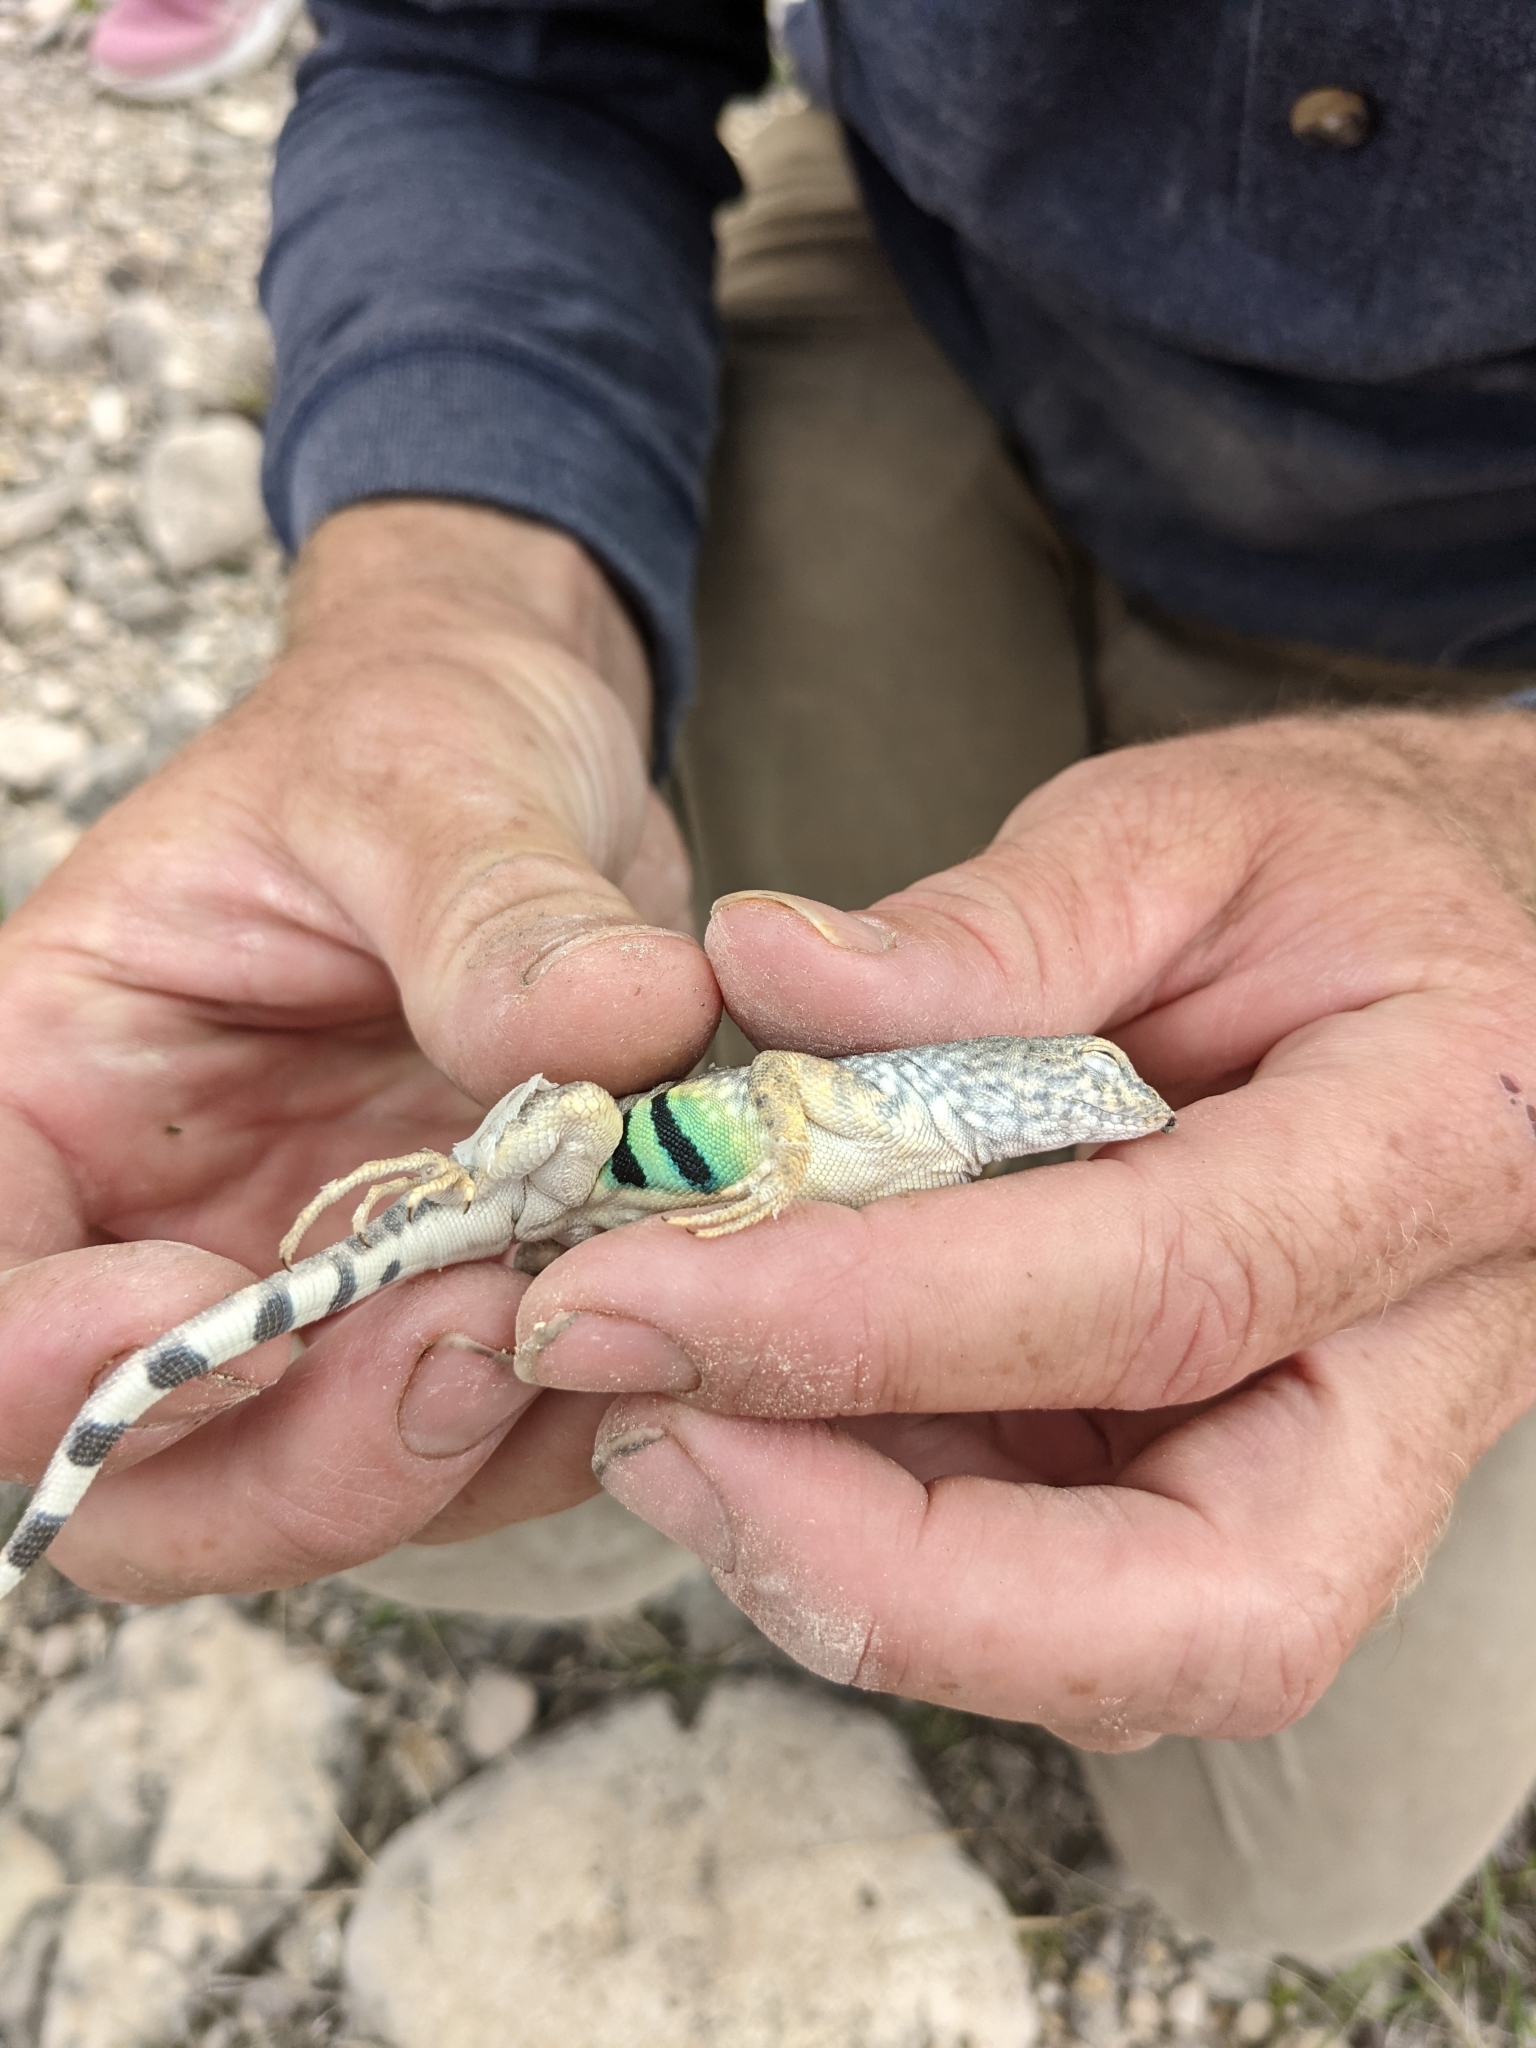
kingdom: Animalia
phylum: Chordata
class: Squamata
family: Phrynosomatidae
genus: Cophosaurus
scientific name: Cophosaurus texanus
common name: Greater earless lizard
